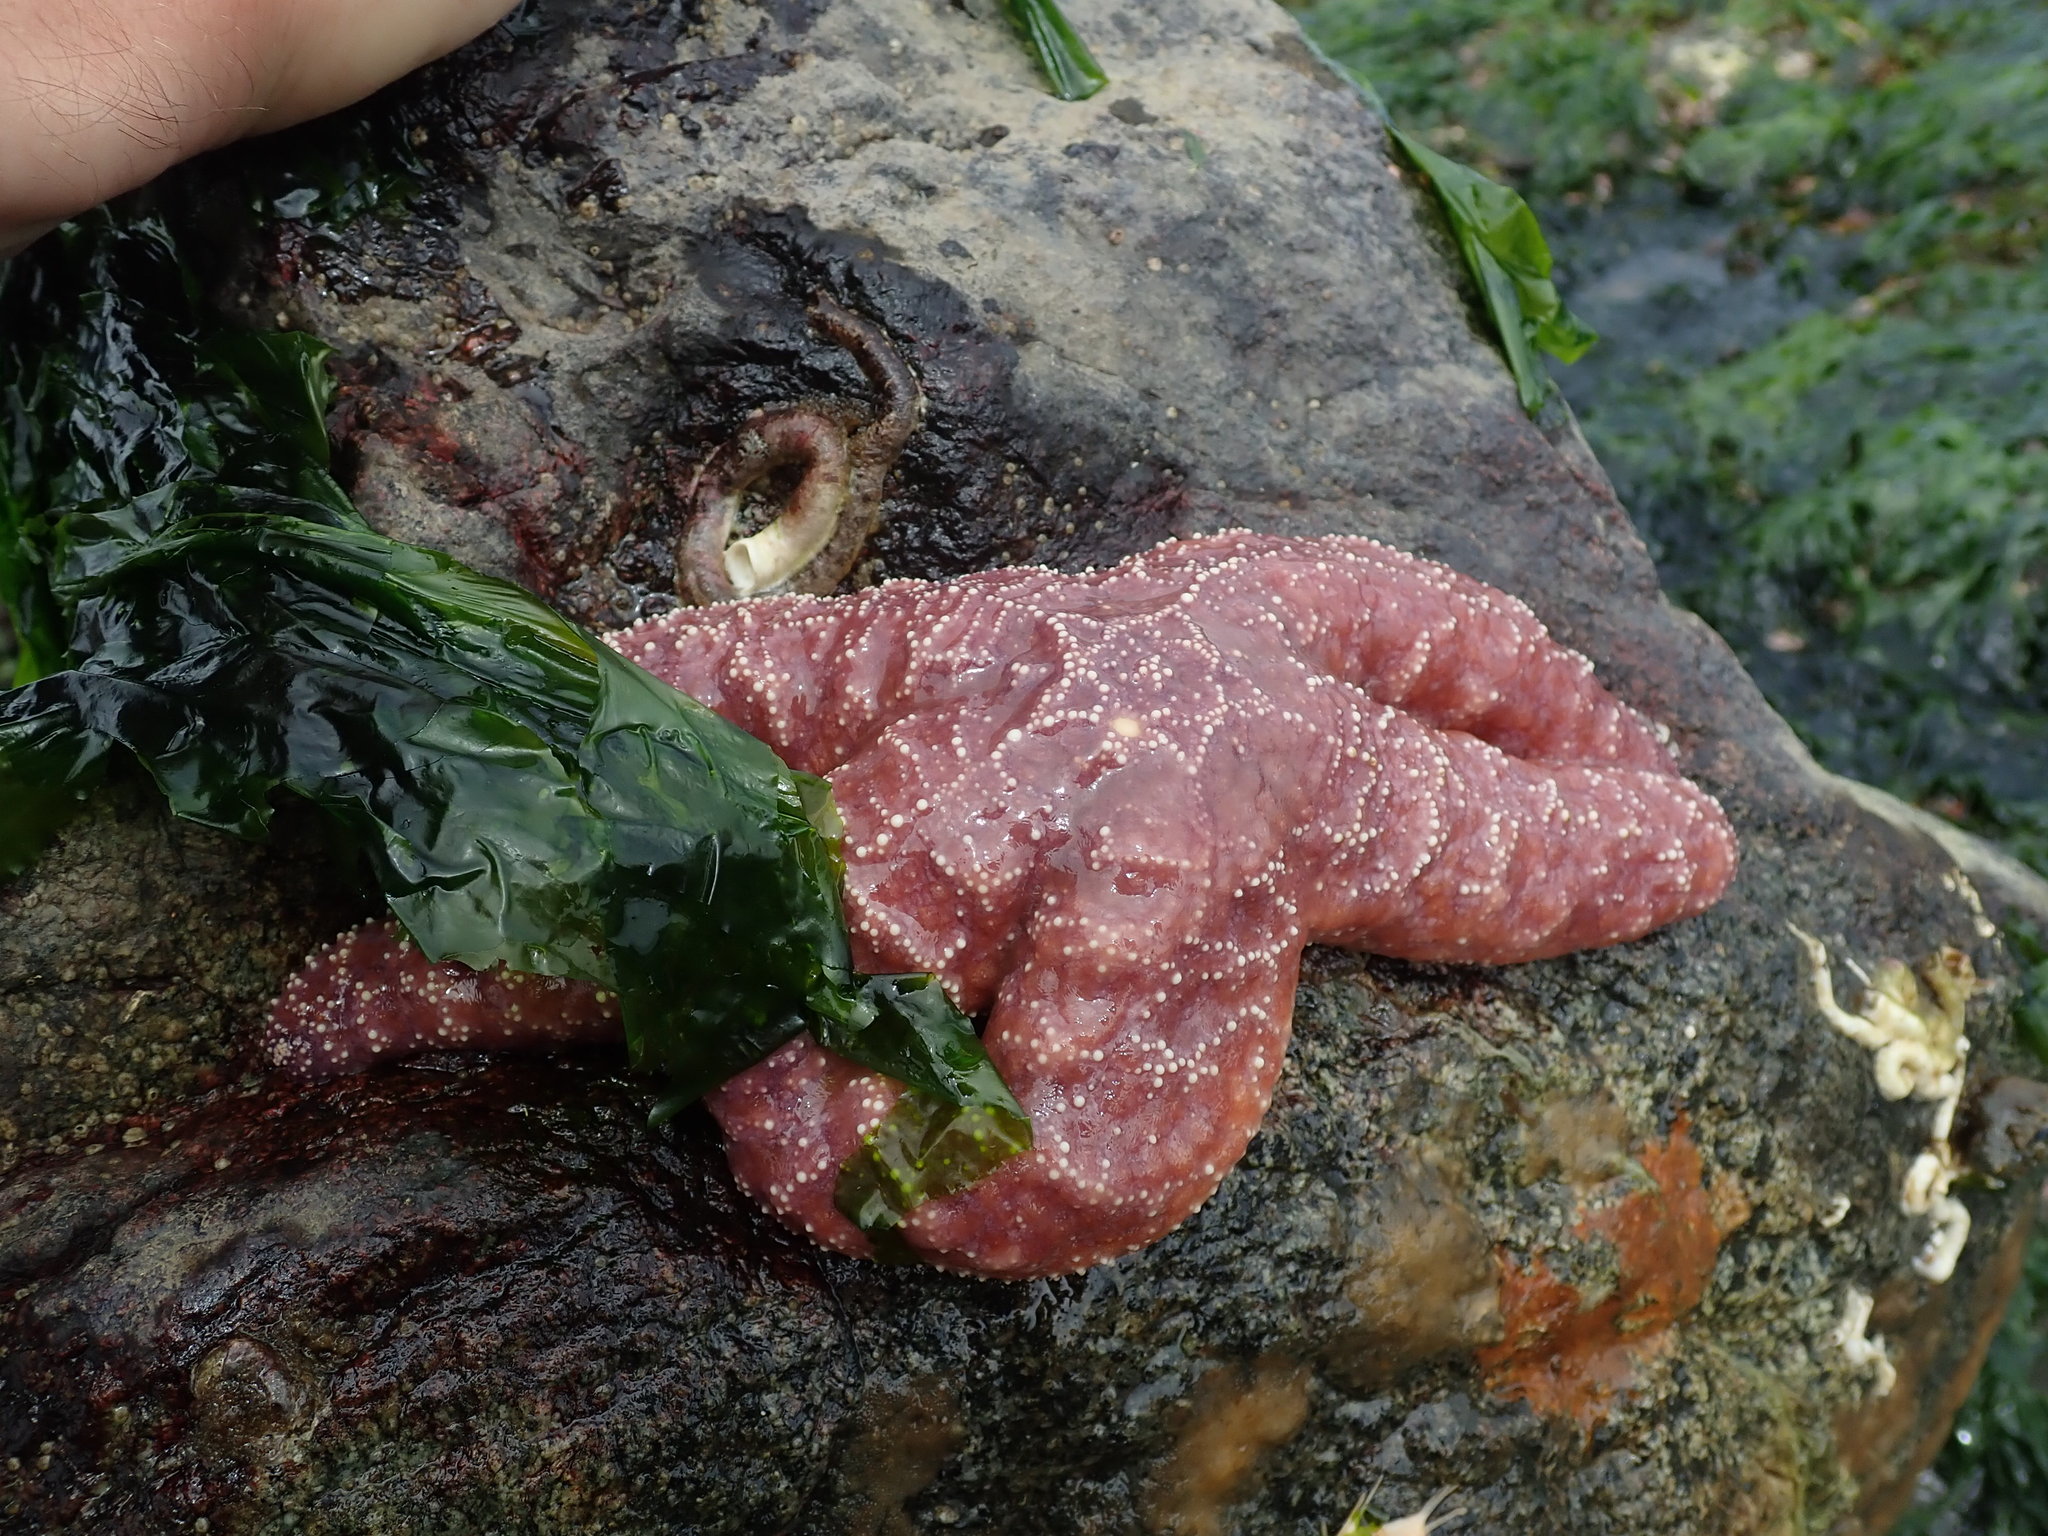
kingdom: Animalia
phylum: Echinodermata
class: Asteroidea
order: Forcipulatida
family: Asteriidae
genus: Pisaster
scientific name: Pisaster ochraceus
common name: Ochre stars
